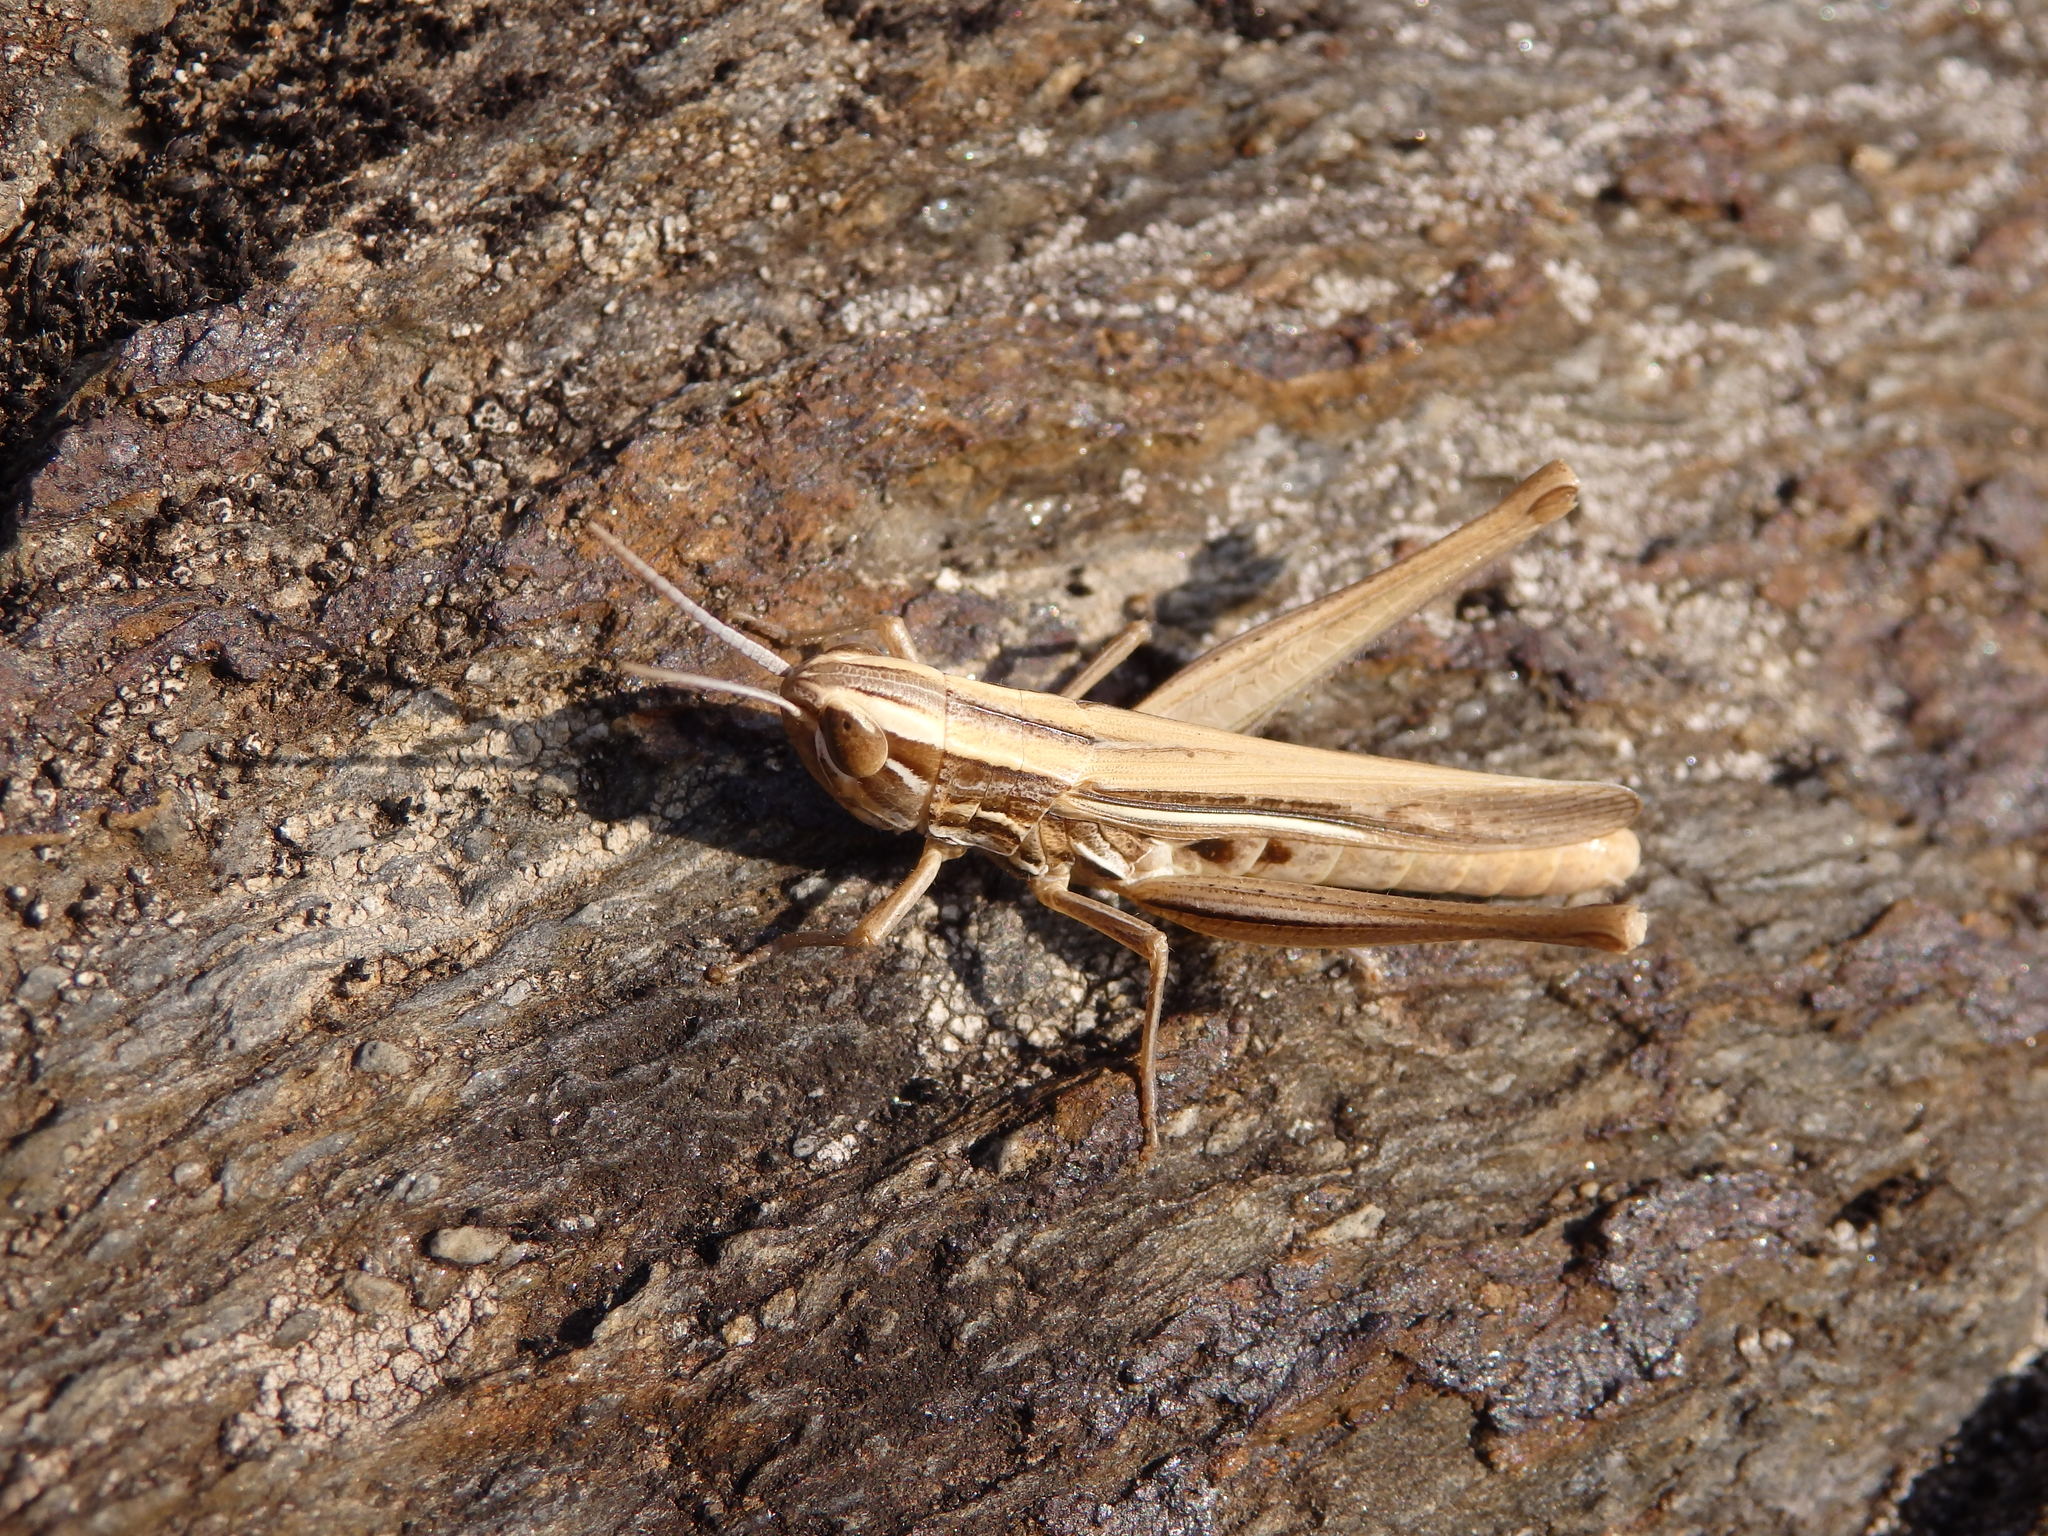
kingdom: Animalia
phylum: Arthropoda
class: Insecta
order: Orthoptera
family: Acrididae
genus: Euchorthippus
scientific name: Euchorthippus chopardi
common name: Iberian straw grasshopper
